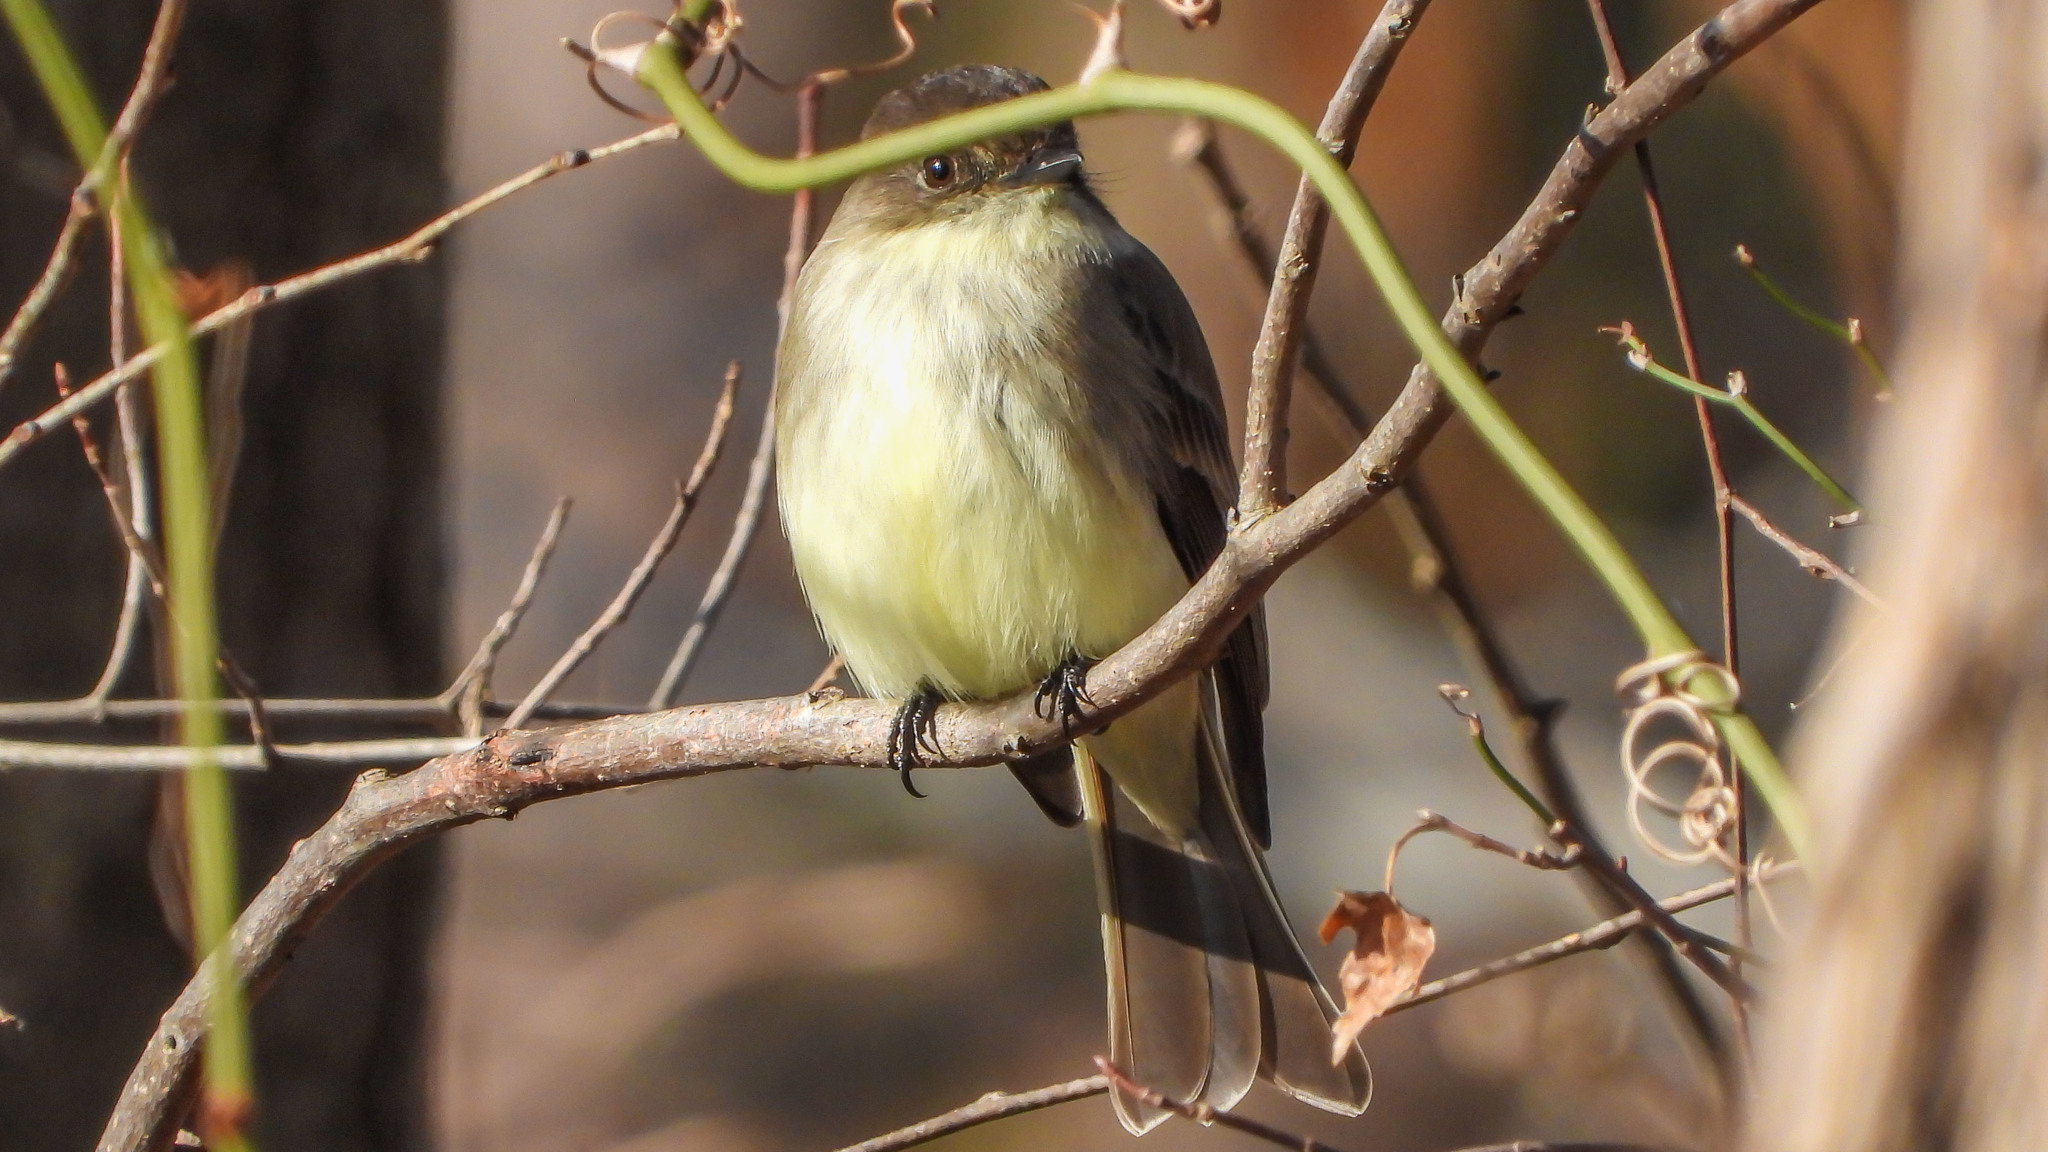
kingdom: Animalia
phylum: Chordata
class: Aves
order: Passeriformes
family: Tyrannidae
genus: Sayornis
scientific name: Sayornis phoebe
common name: Eastern phoebe
